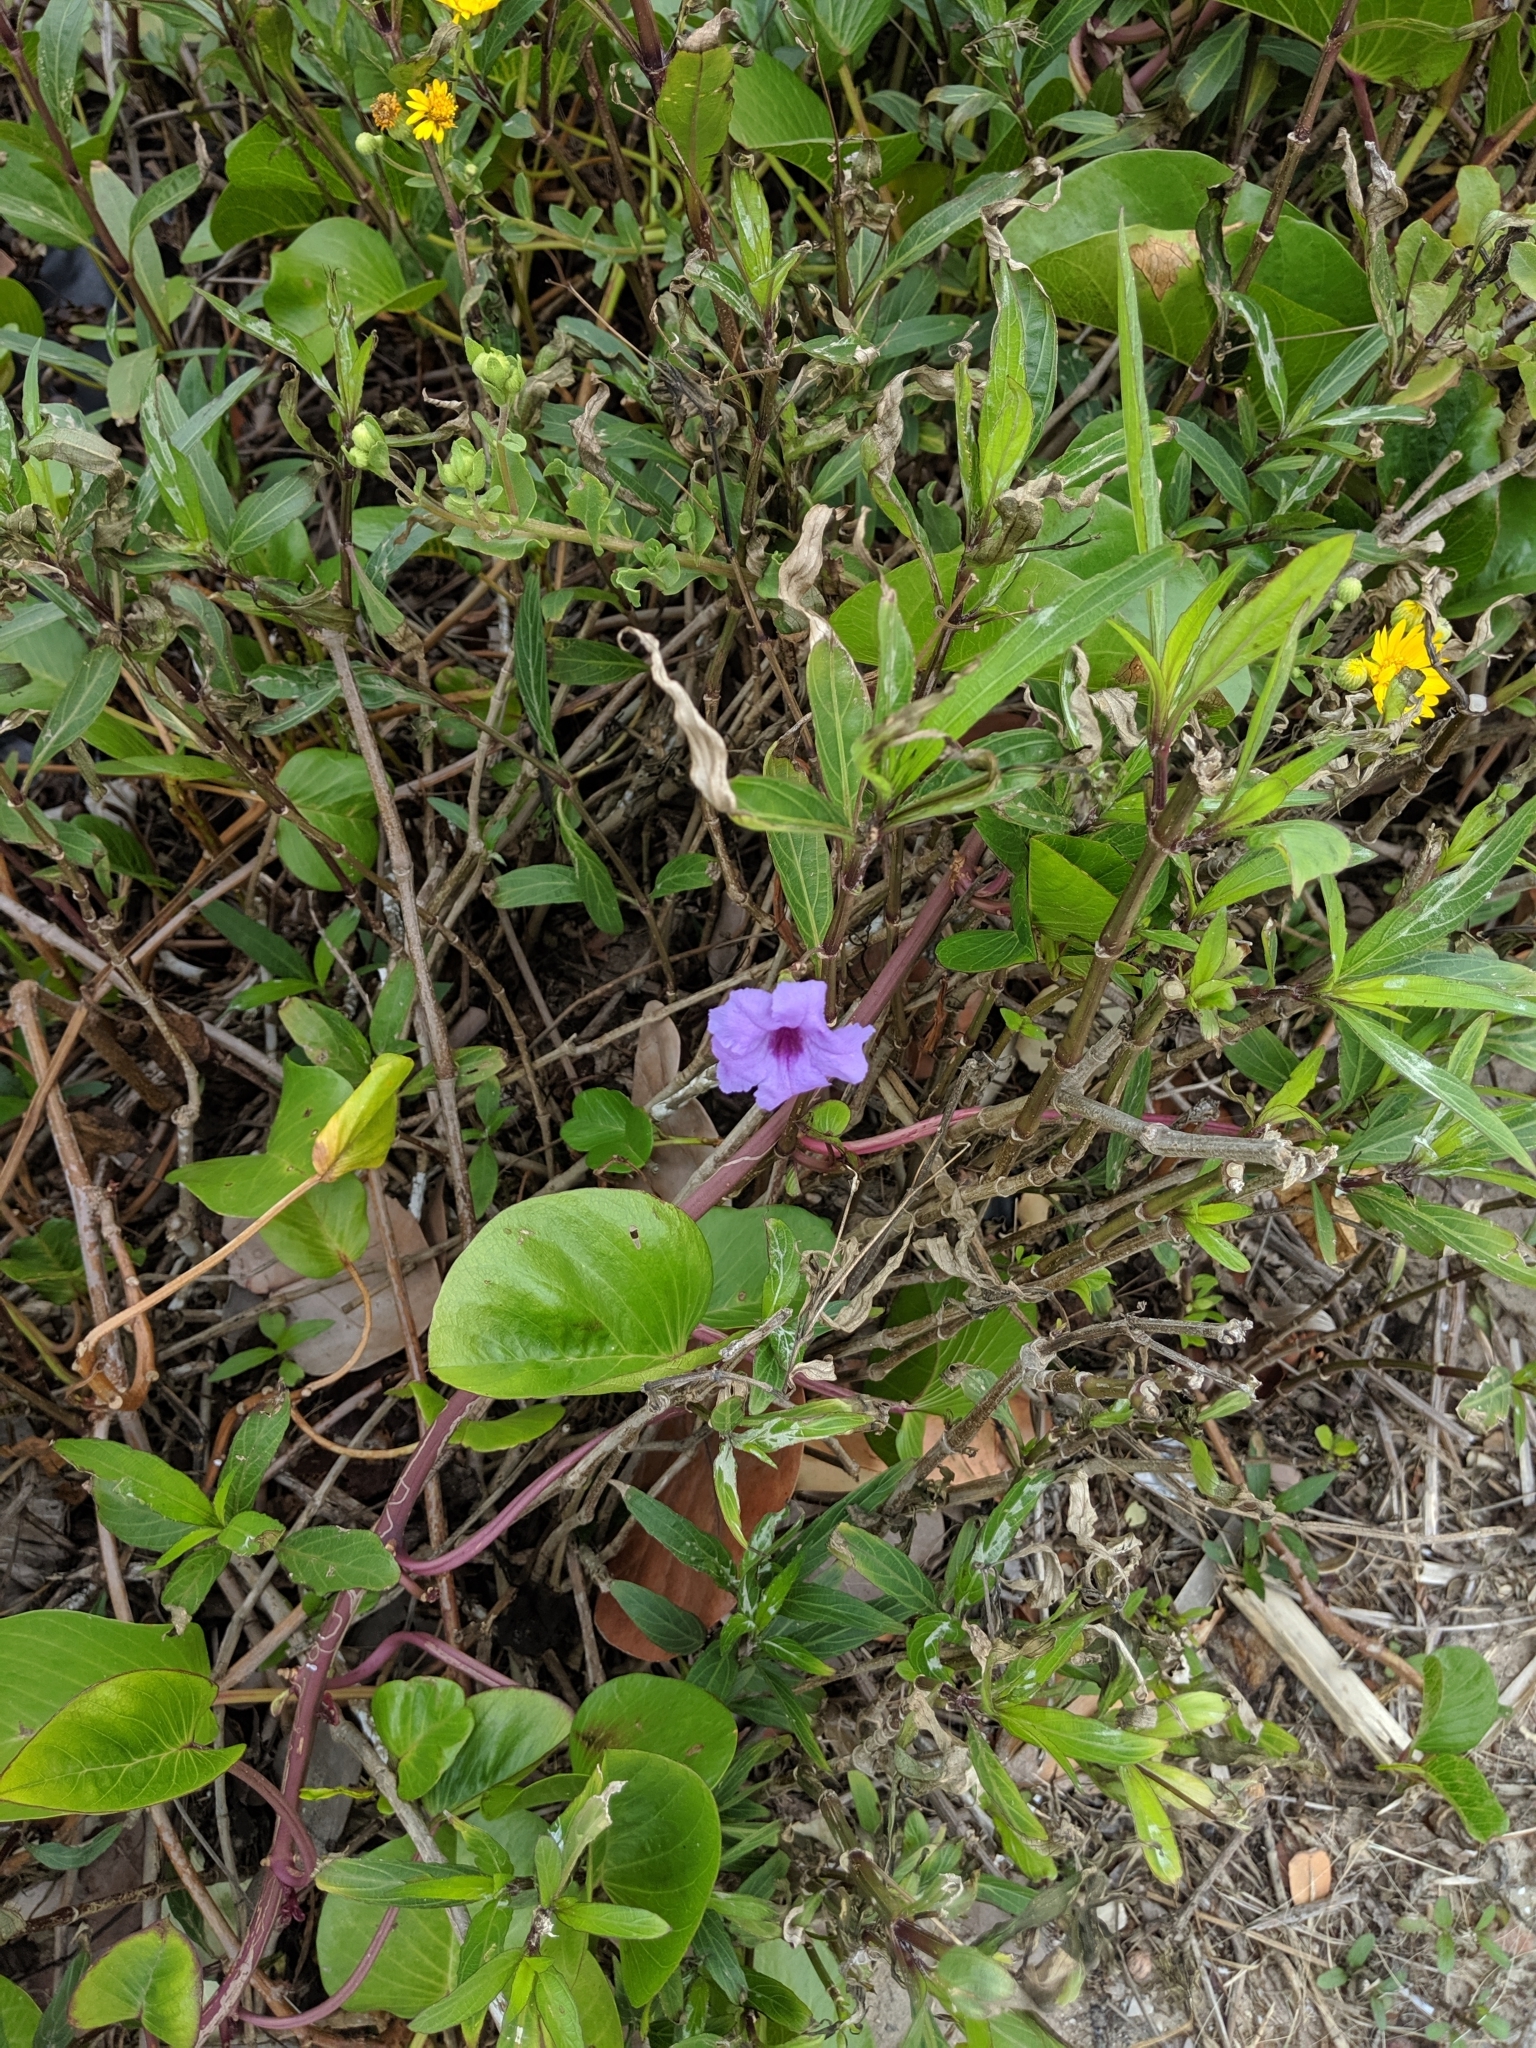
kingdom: Plantae
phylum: Tracheophyta
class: Magnoliopsida
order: Lamiales
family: Acanthaceae
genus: Ruellia
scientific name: Ruellia simplex
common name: Softseed wild petunia
